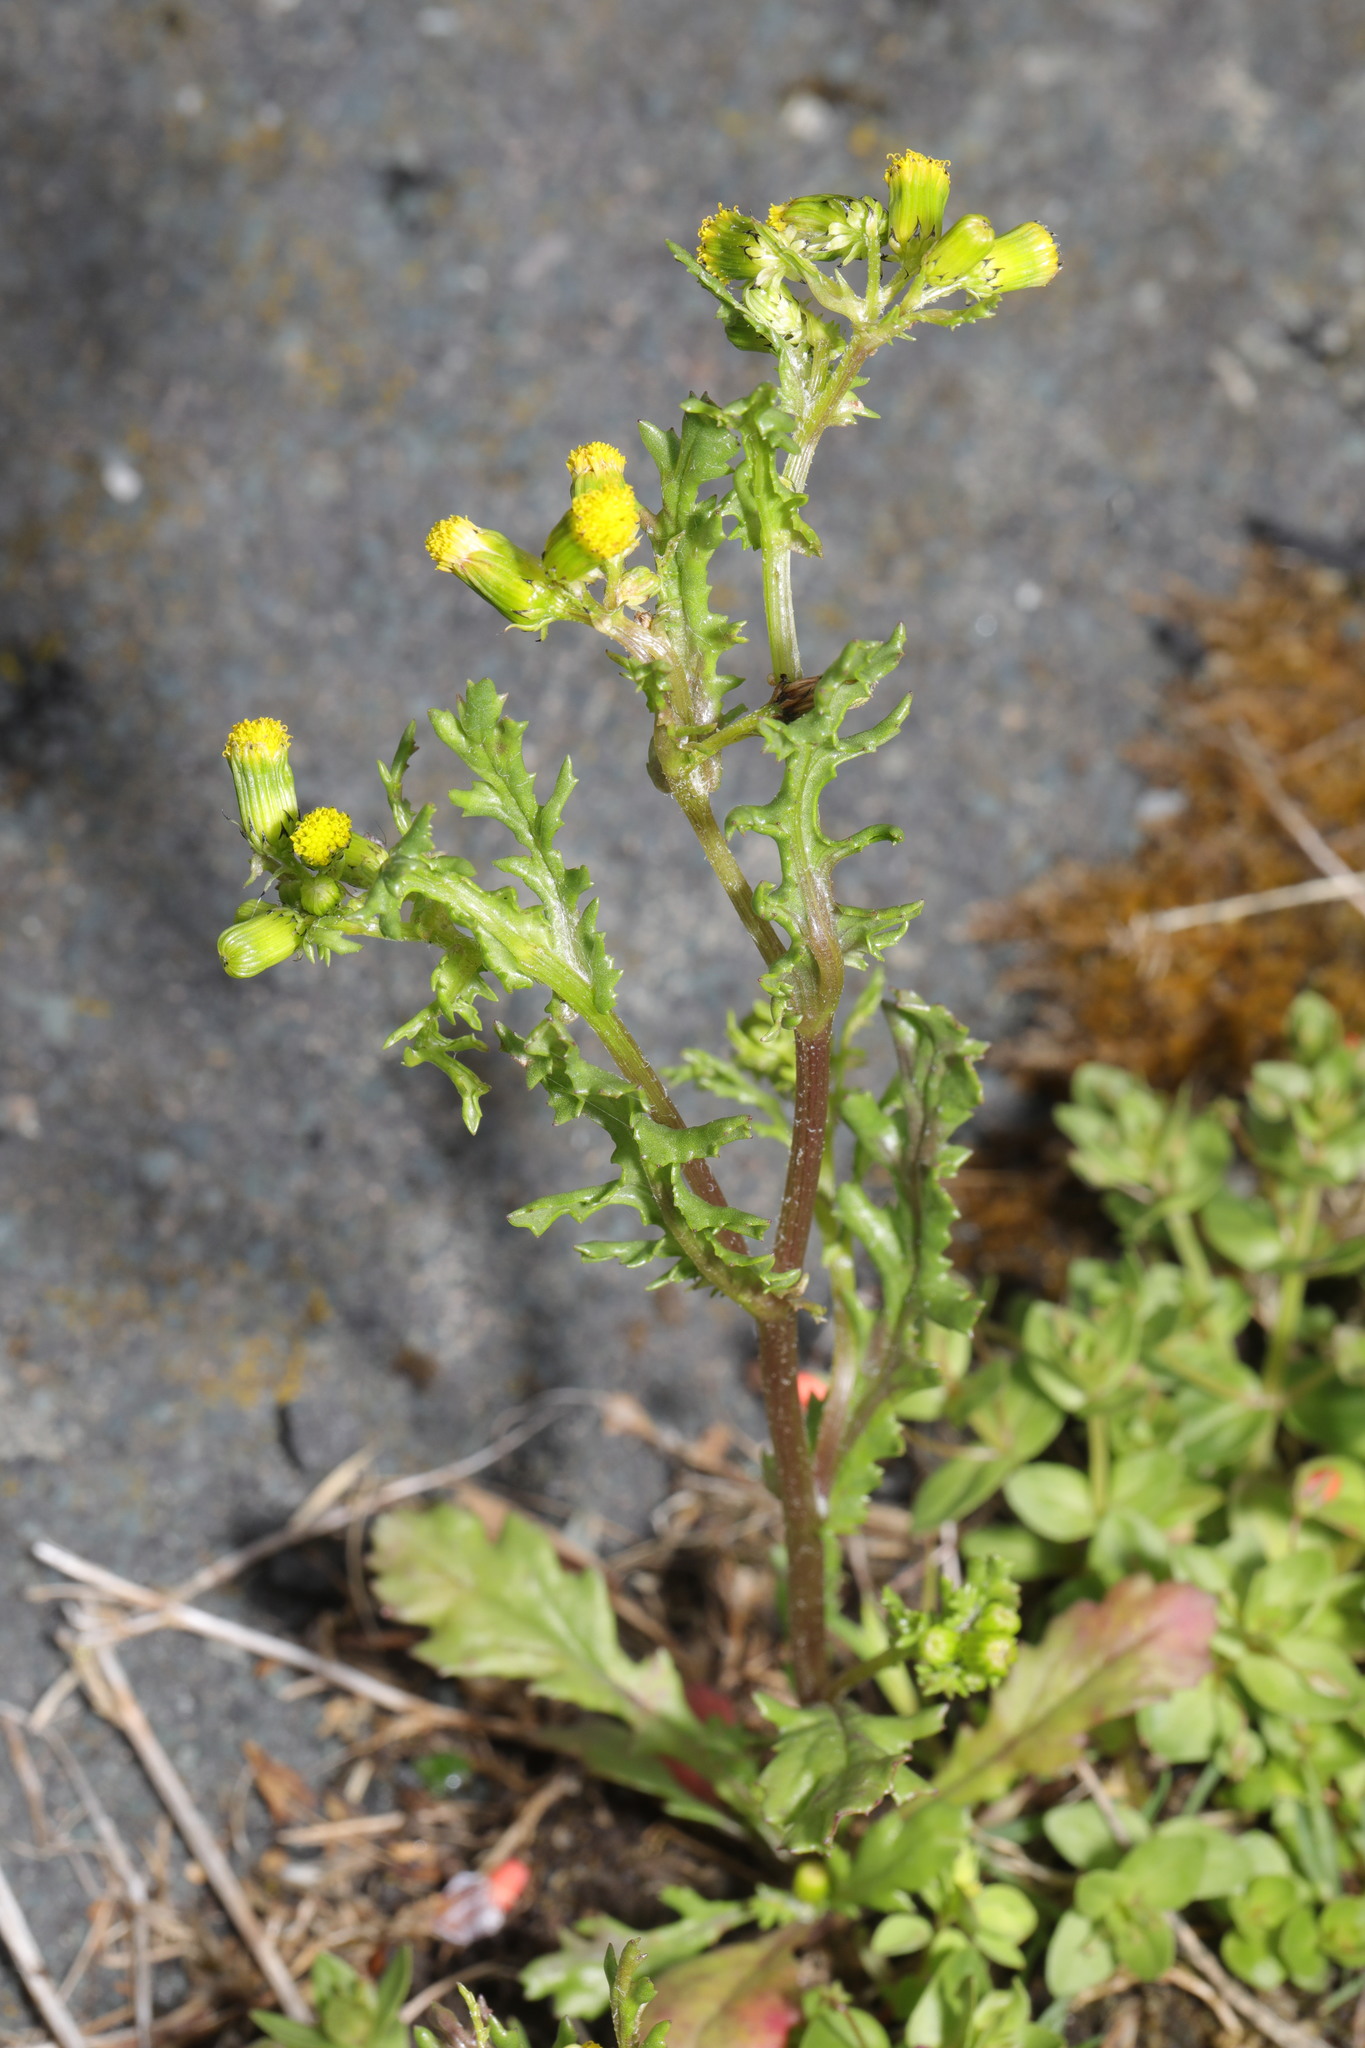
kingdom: Plantae
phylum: Tracheophyta
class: Magnoliopsida
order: Asterales
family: Asteraceae
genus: Senecio
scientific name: Senecio vulgaris
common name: Old-man-in-the-spring
